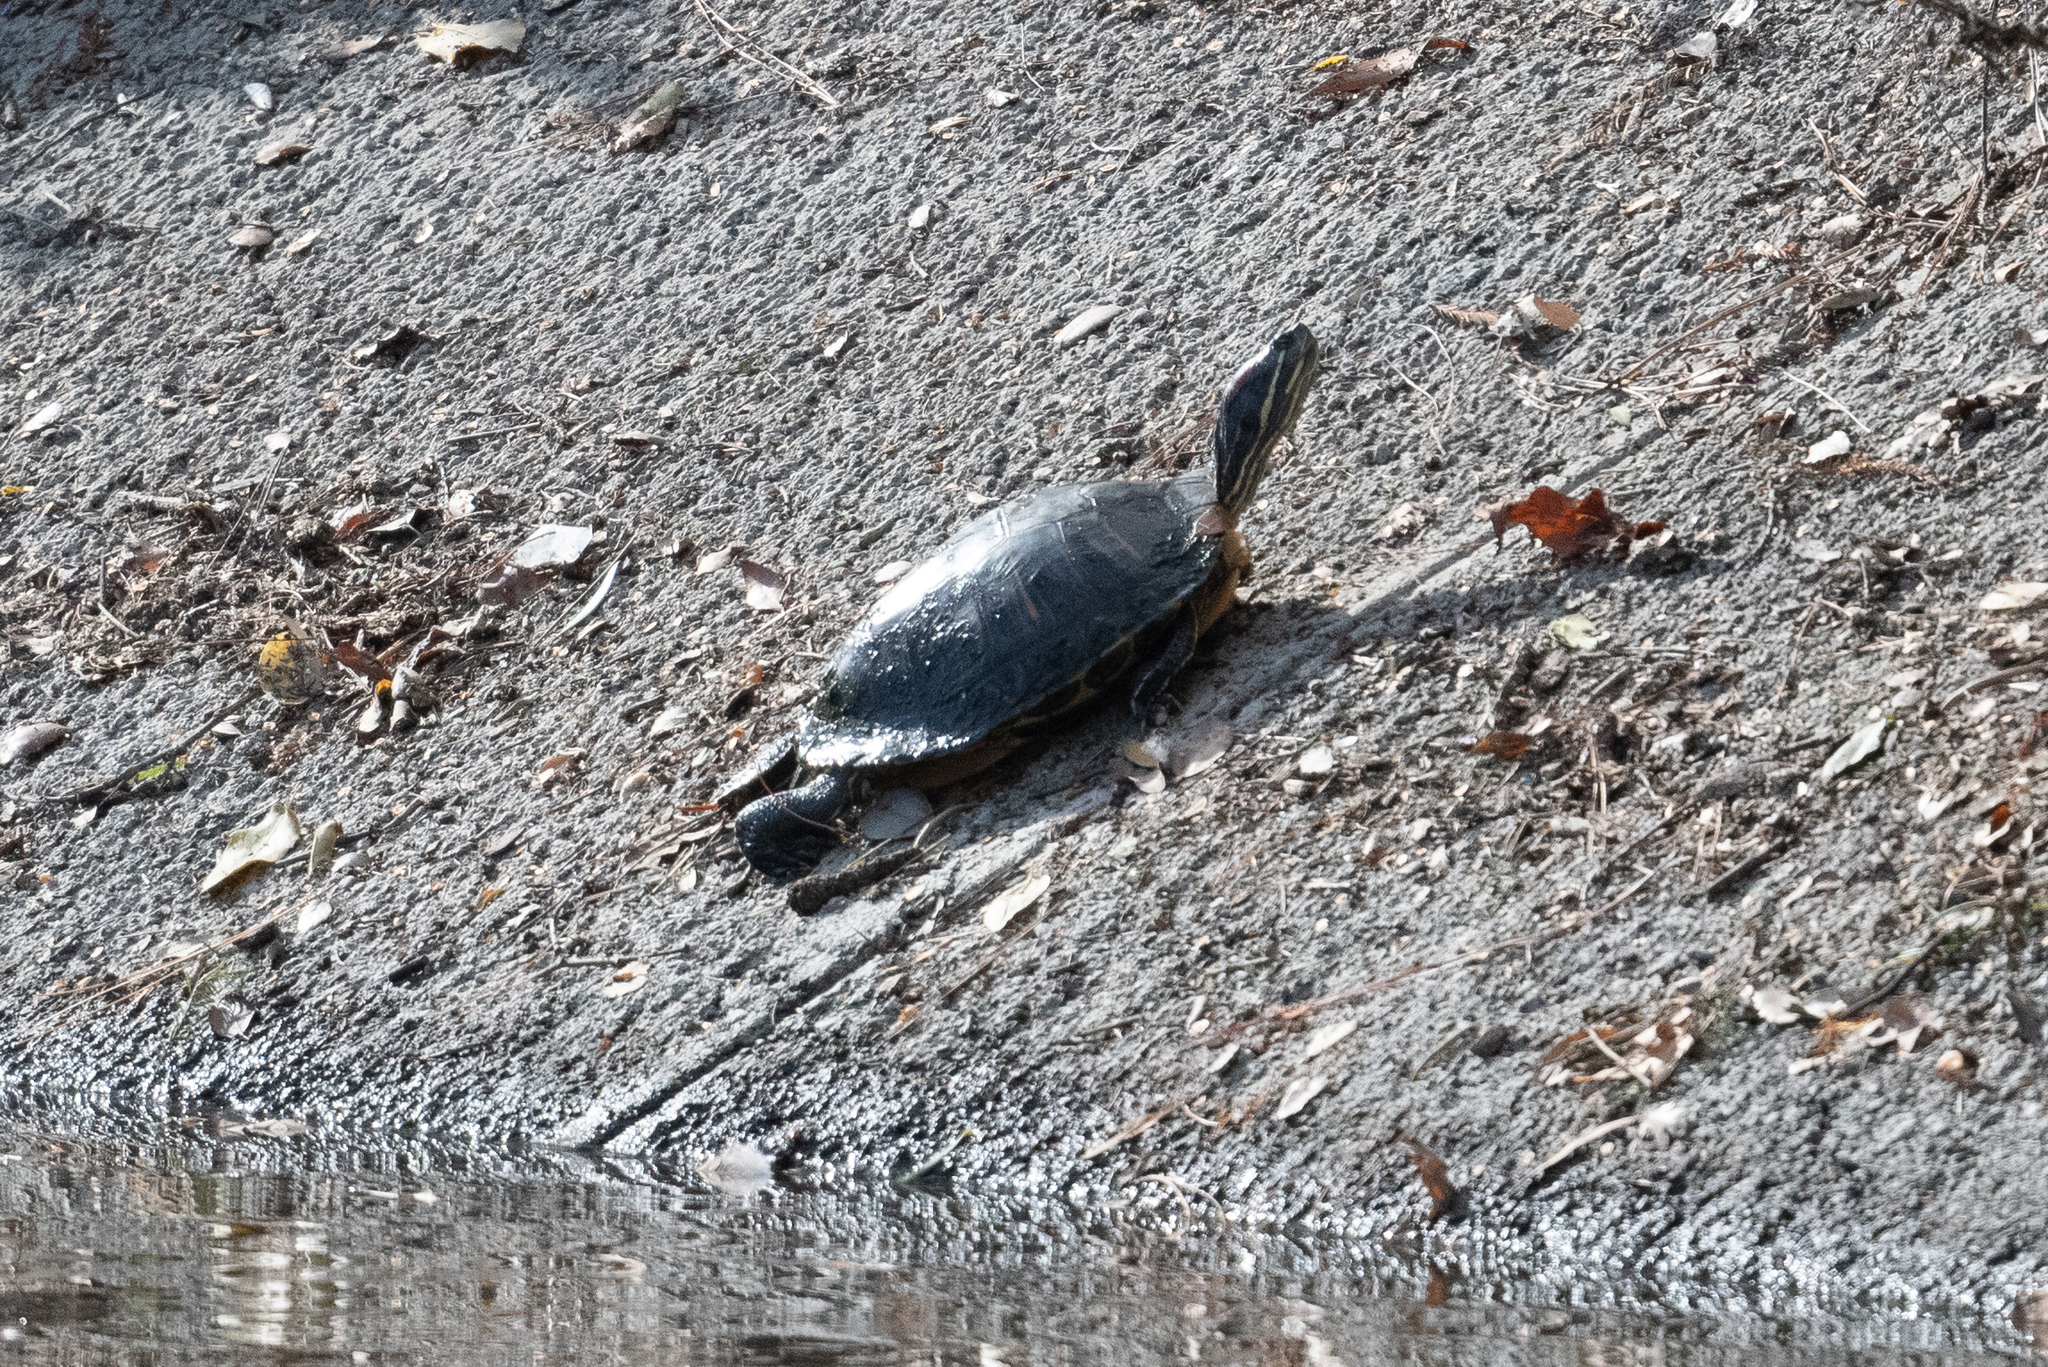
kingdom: Animalia
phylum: Chordata
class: Testudines
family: Emydidae
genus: Trachemys
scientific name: Trachemys scripta
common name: Slider
